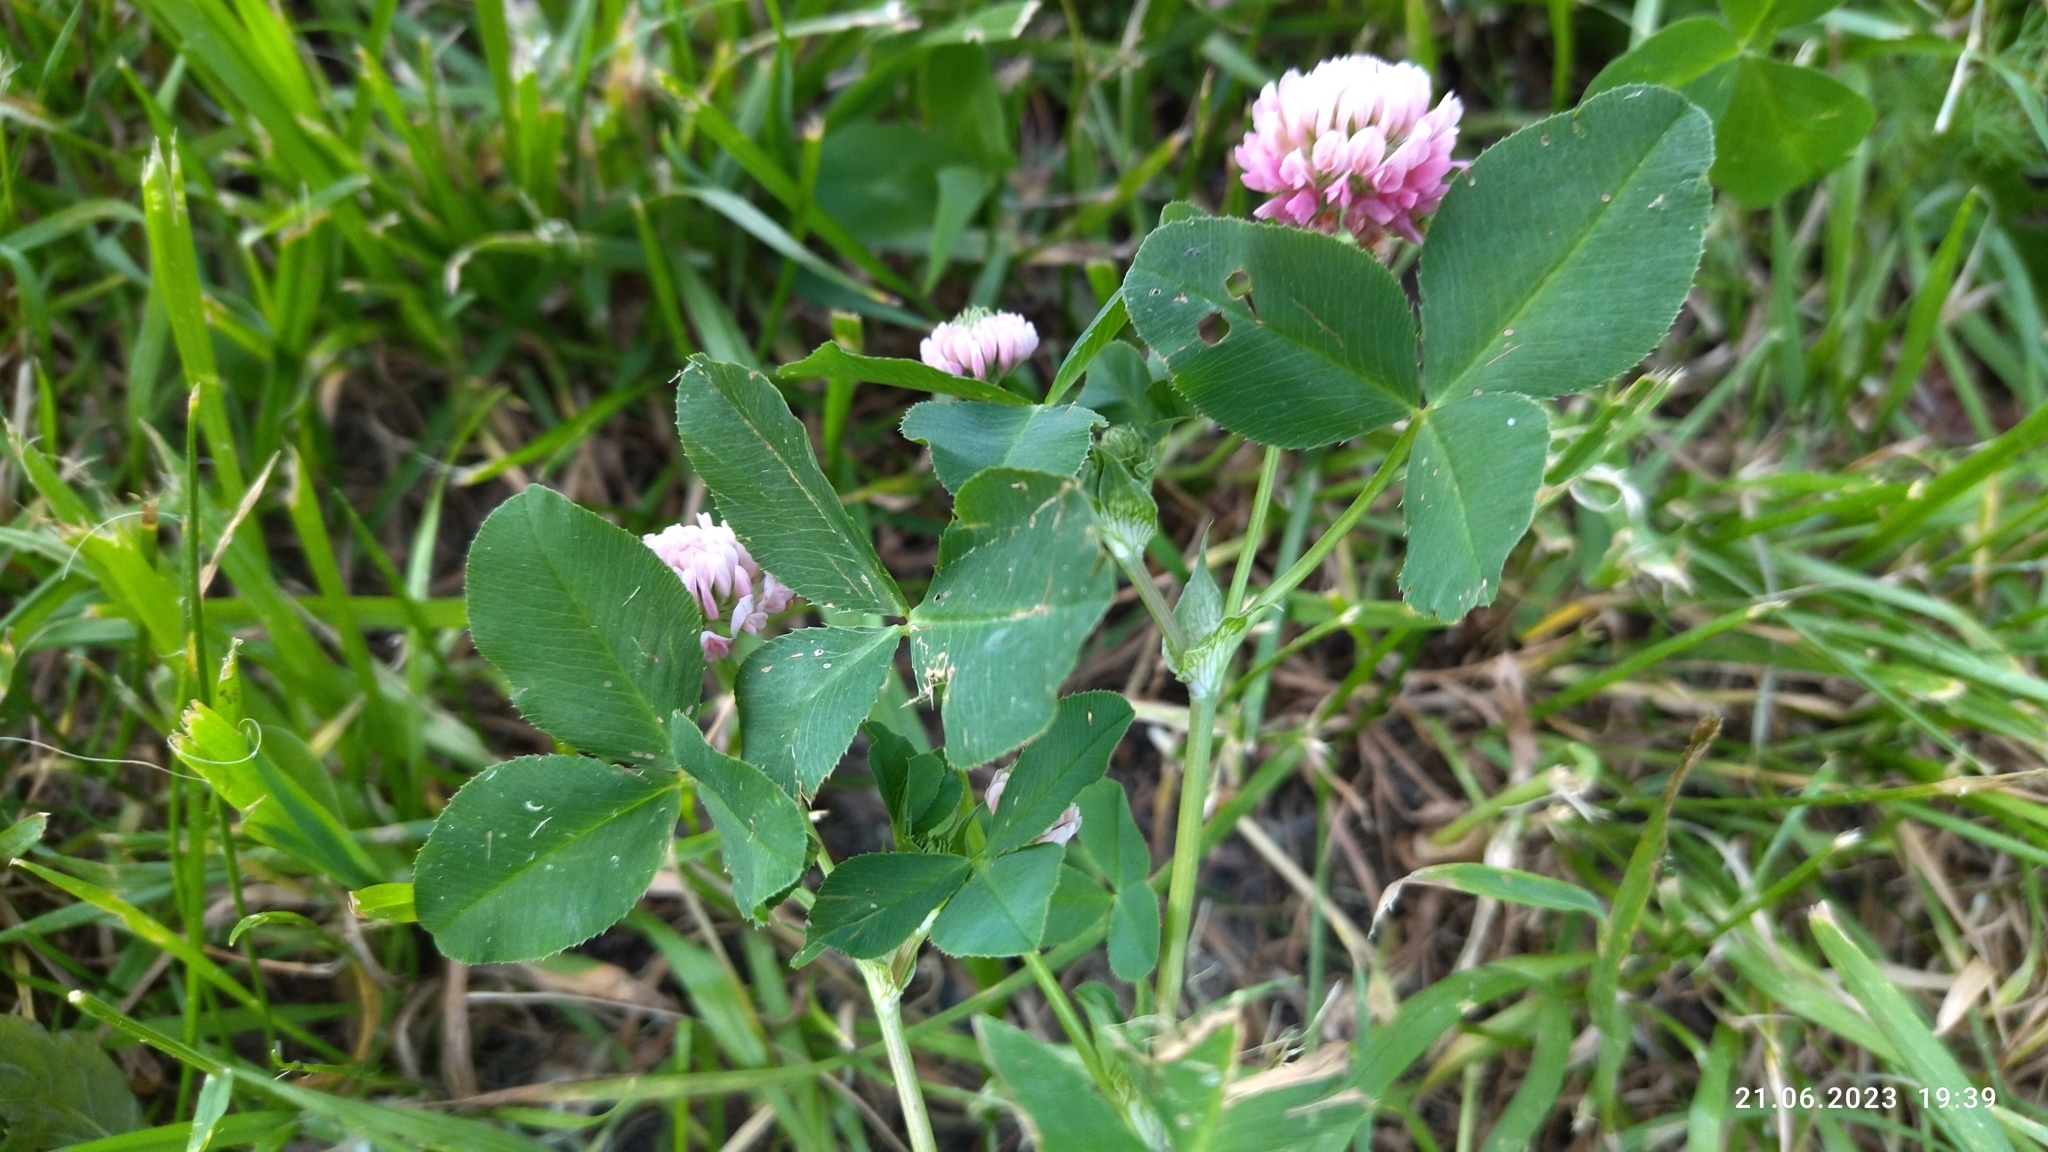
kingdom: Plantae
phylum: Tracheophyta
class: Magnoliopsida
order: Fabales
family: Fabaceae
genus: Trifolium
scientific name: Trifolium hybridum
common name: Alsike clover
